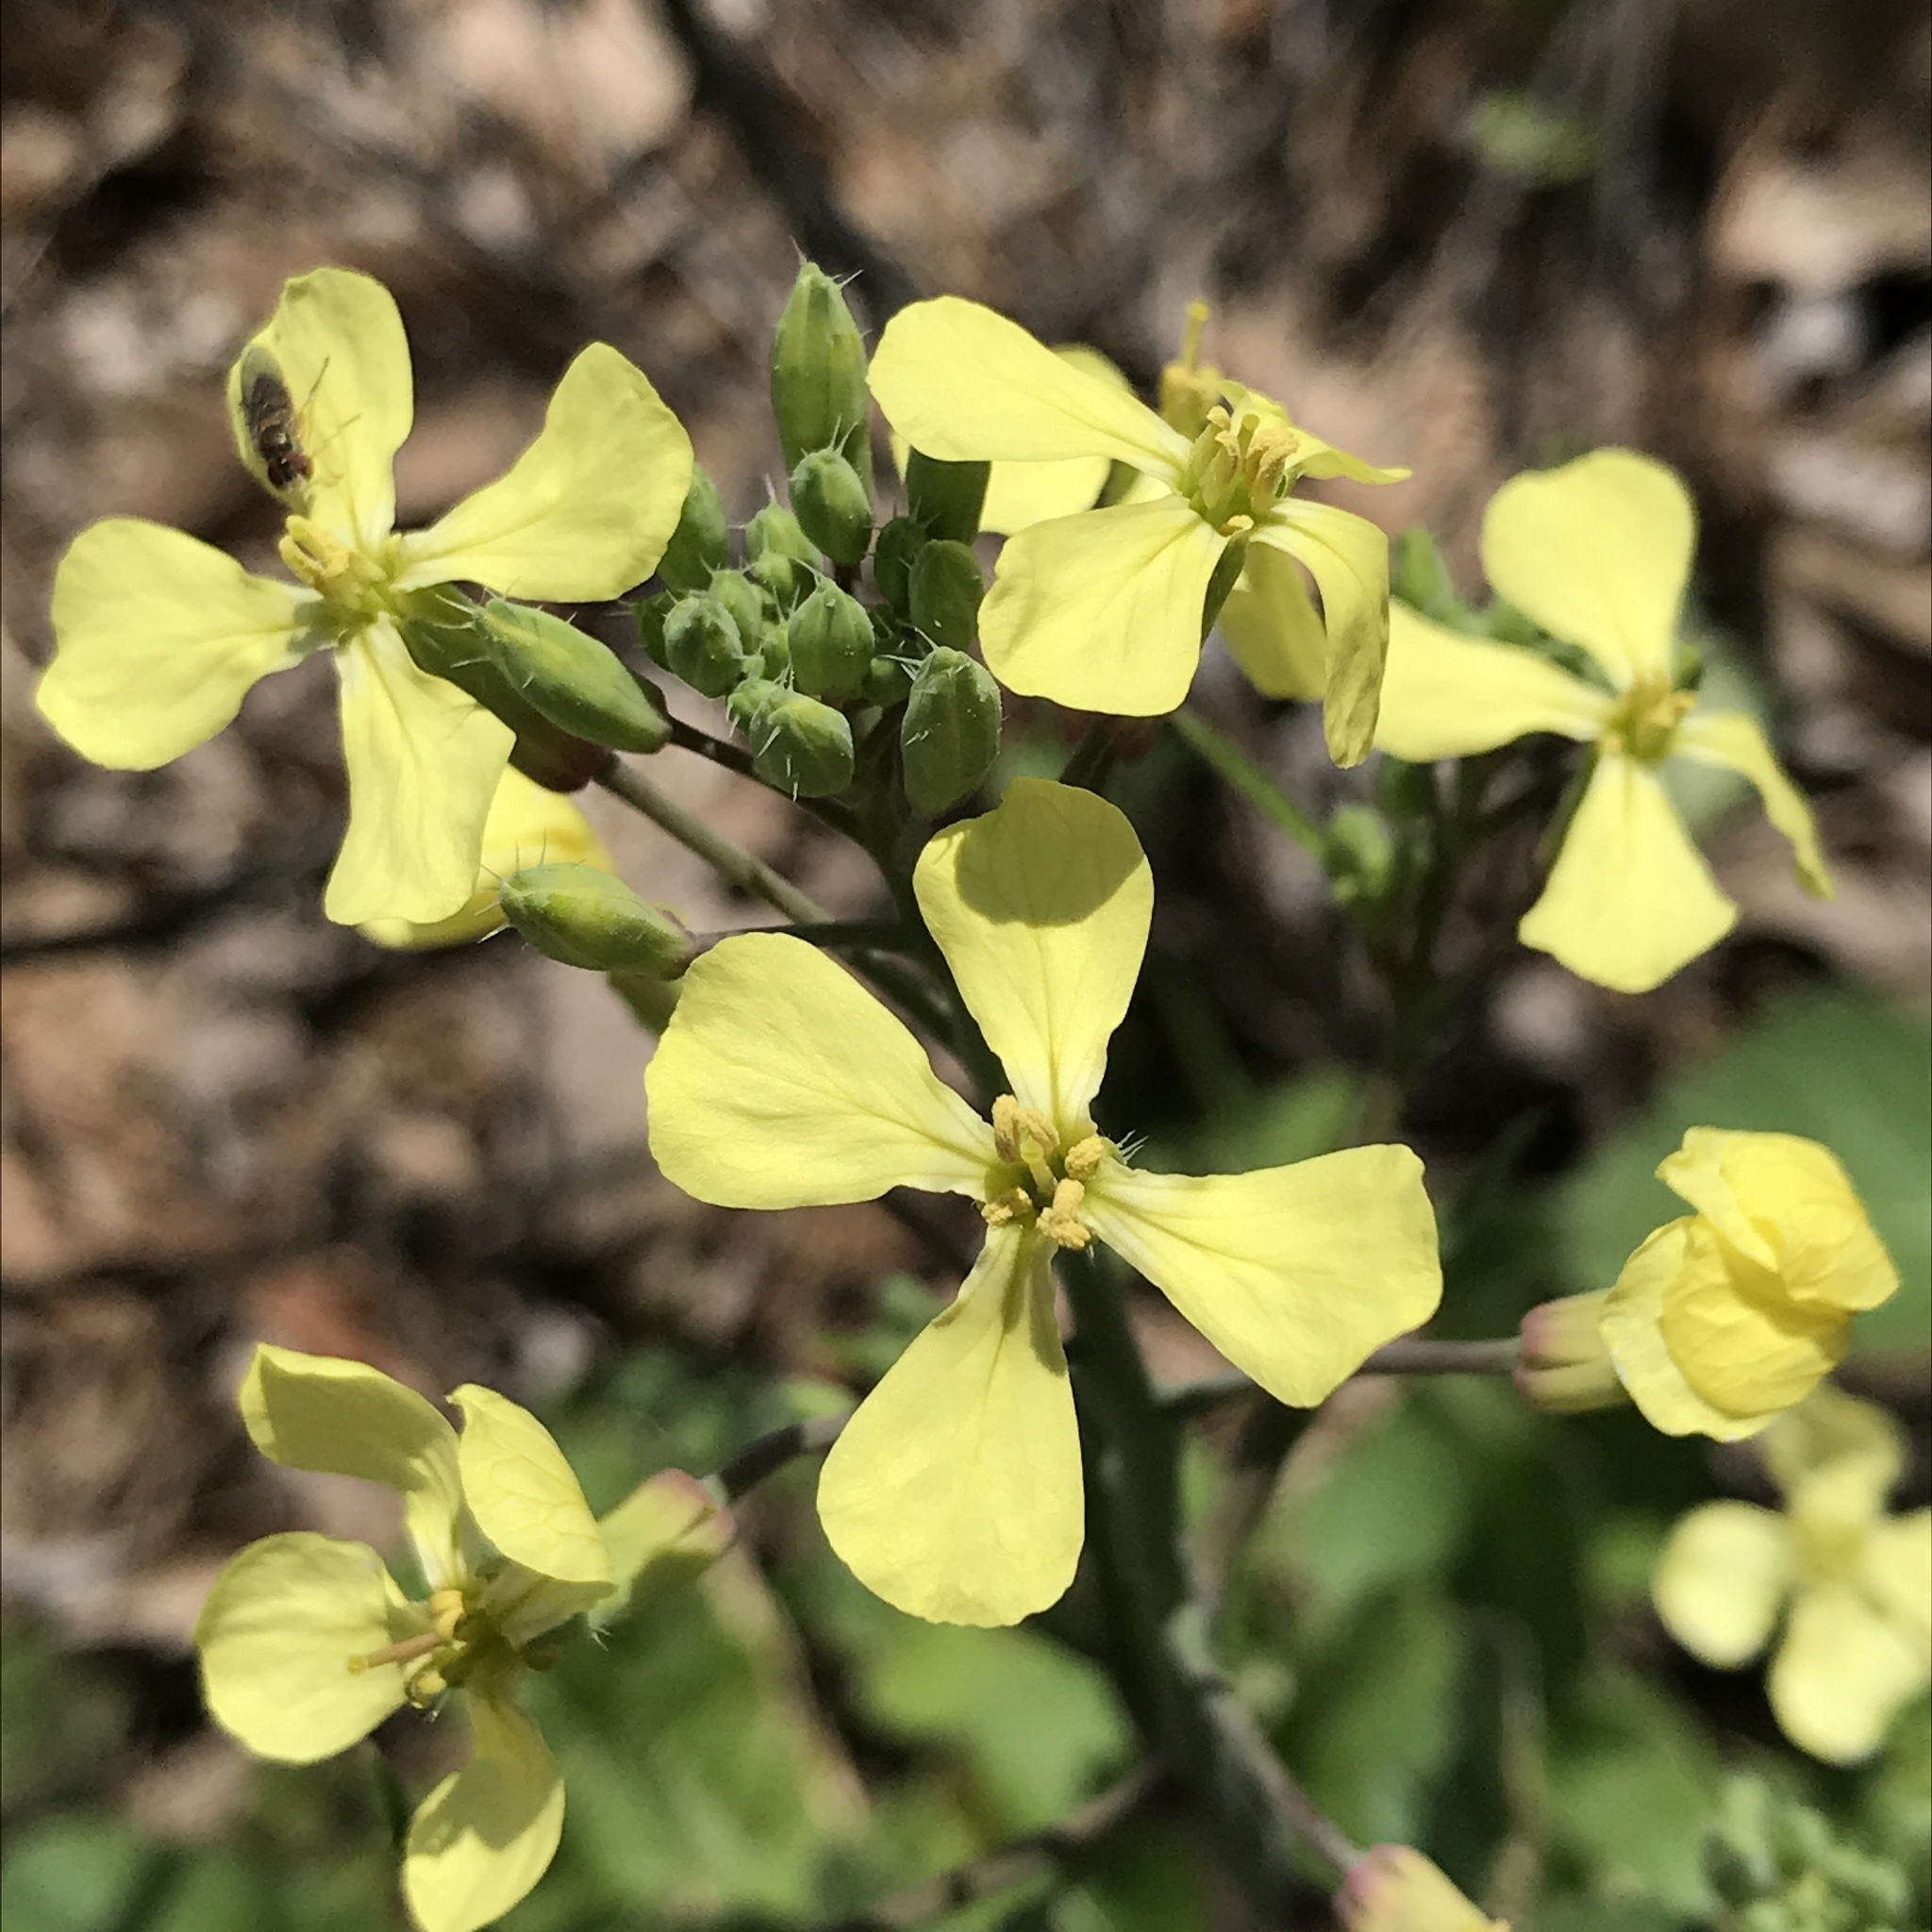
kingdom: Plantae
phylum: Tracheophyta
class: Magnoliopsida
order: Brassicales
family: Brassicaceae
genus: Raphanus
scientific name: Raphanus raphanistrum
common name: Wild radish
